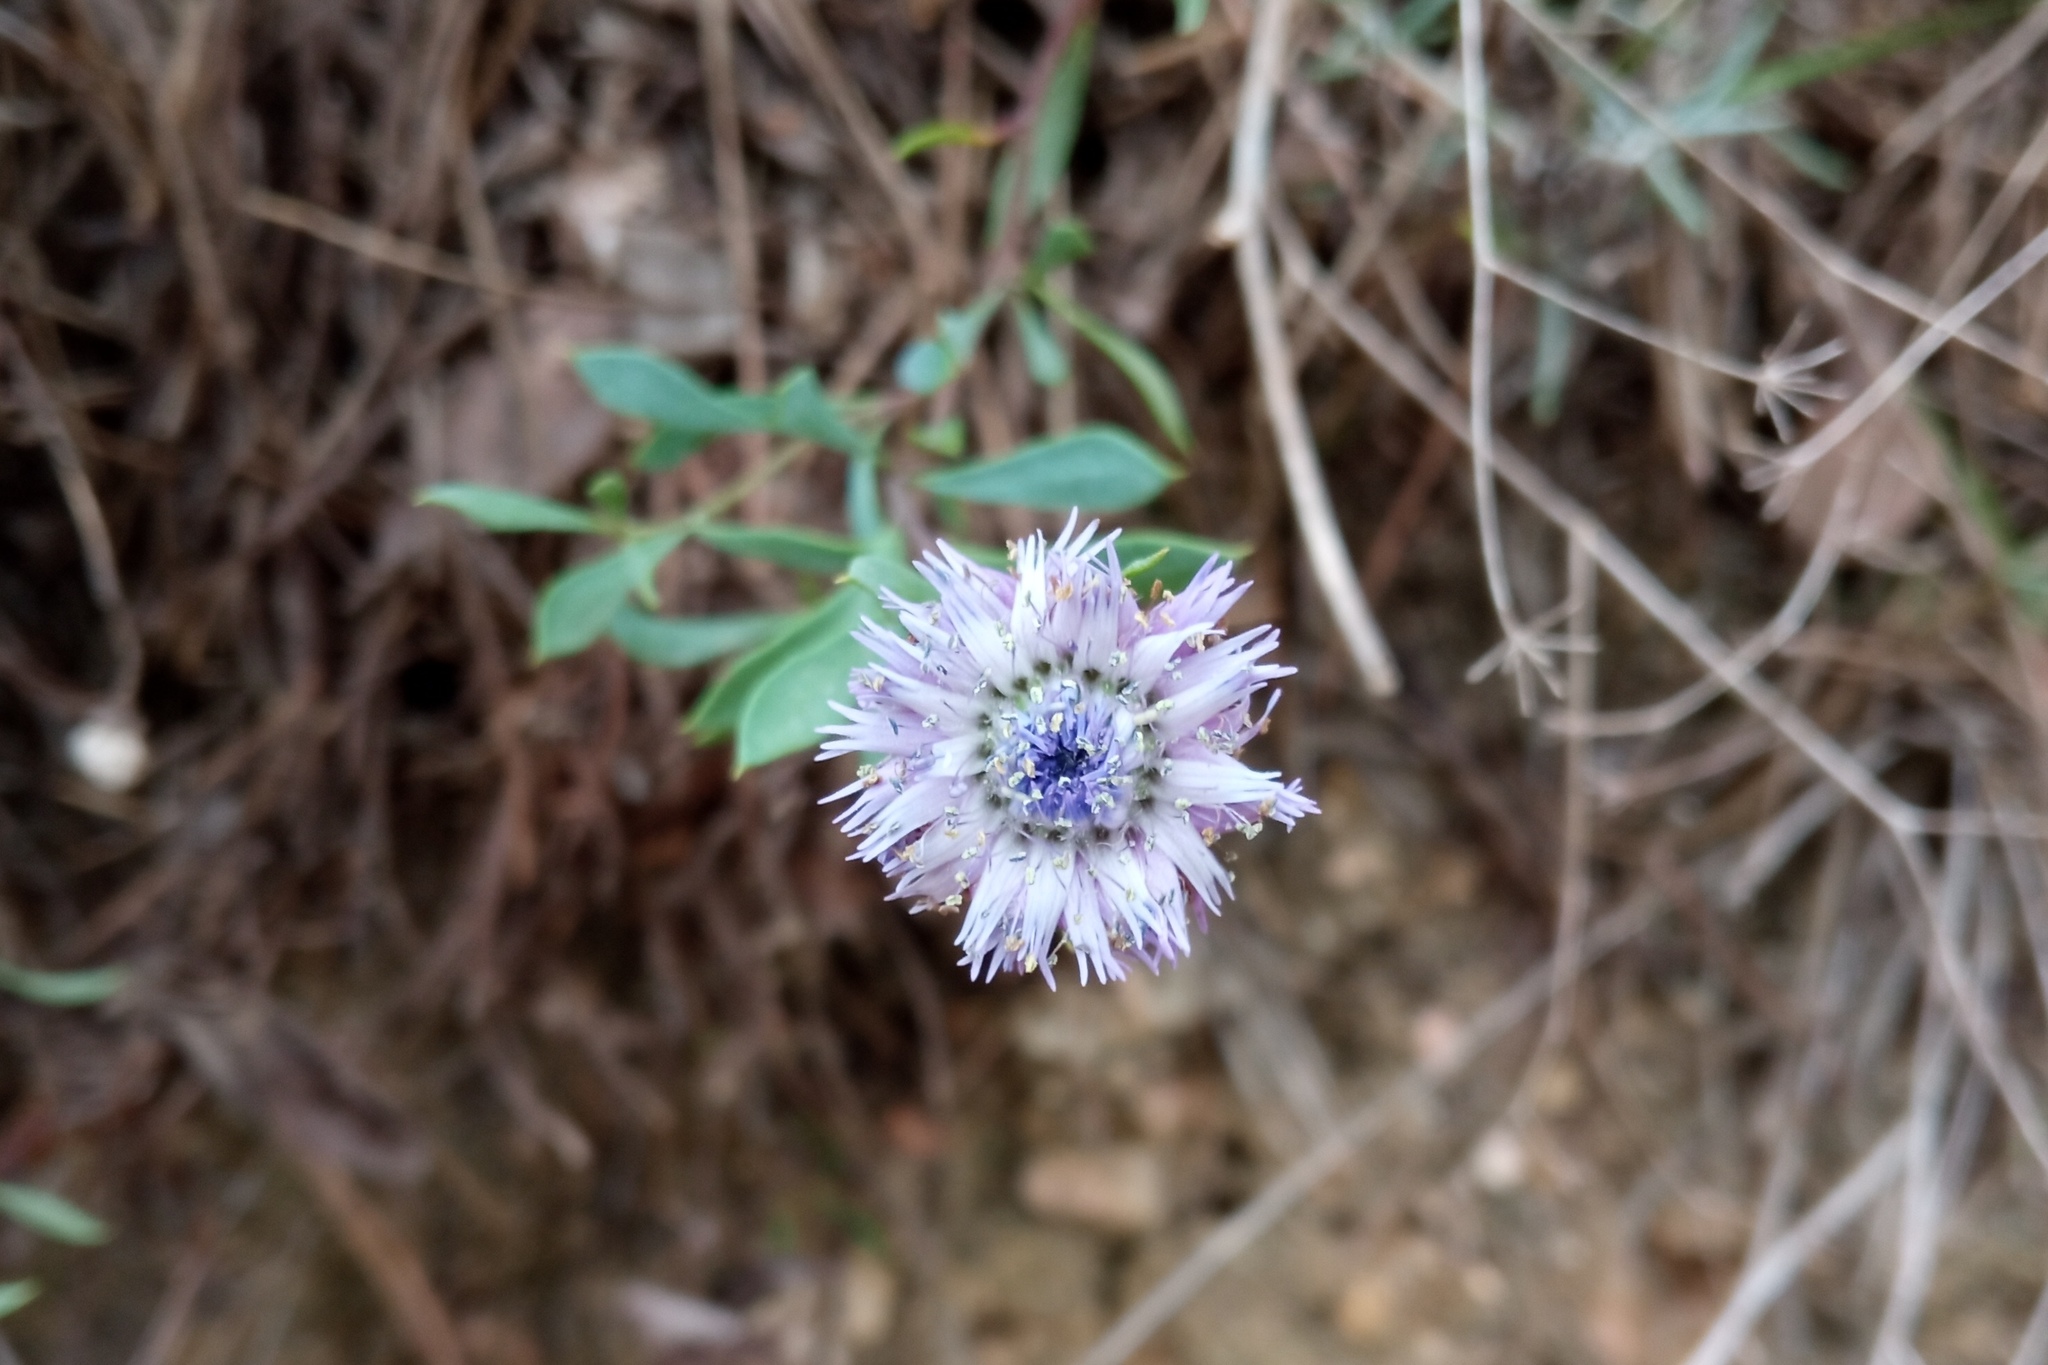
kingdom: Plantae
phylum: Tracheophyta
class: Magnoliopsida
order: Lamiales
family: Plantaginaceae
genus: Globularia
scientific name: Globularia alypum
